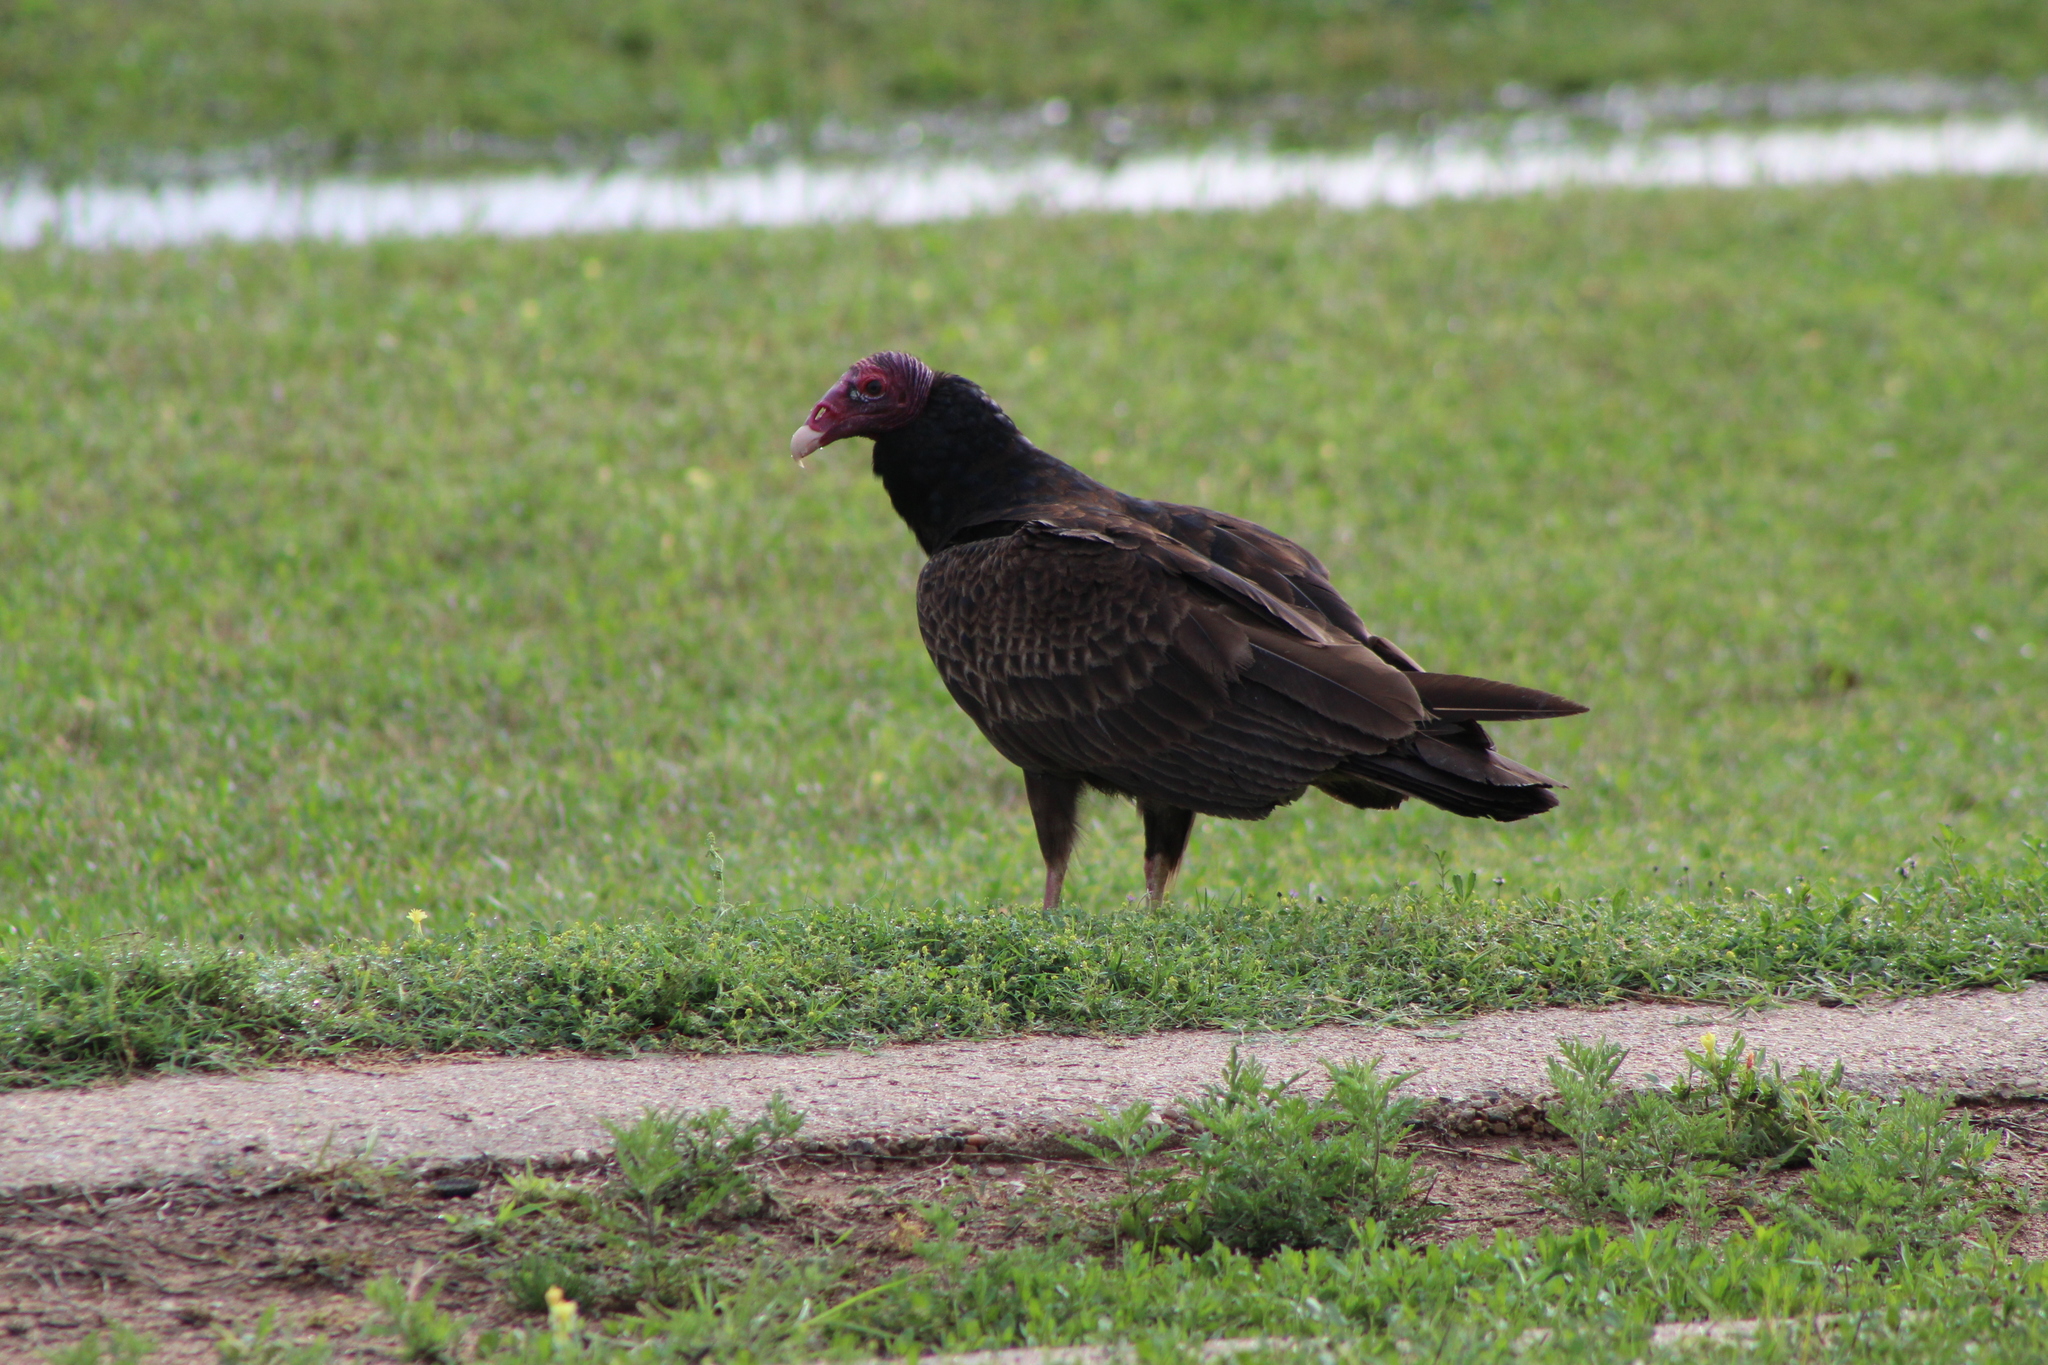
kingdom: Animalia
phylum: Chordata
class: Aves
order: Accipitriformes
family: Cathartidae
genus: Cathartes
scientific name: Cathartes aura
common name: Turkey vulture
